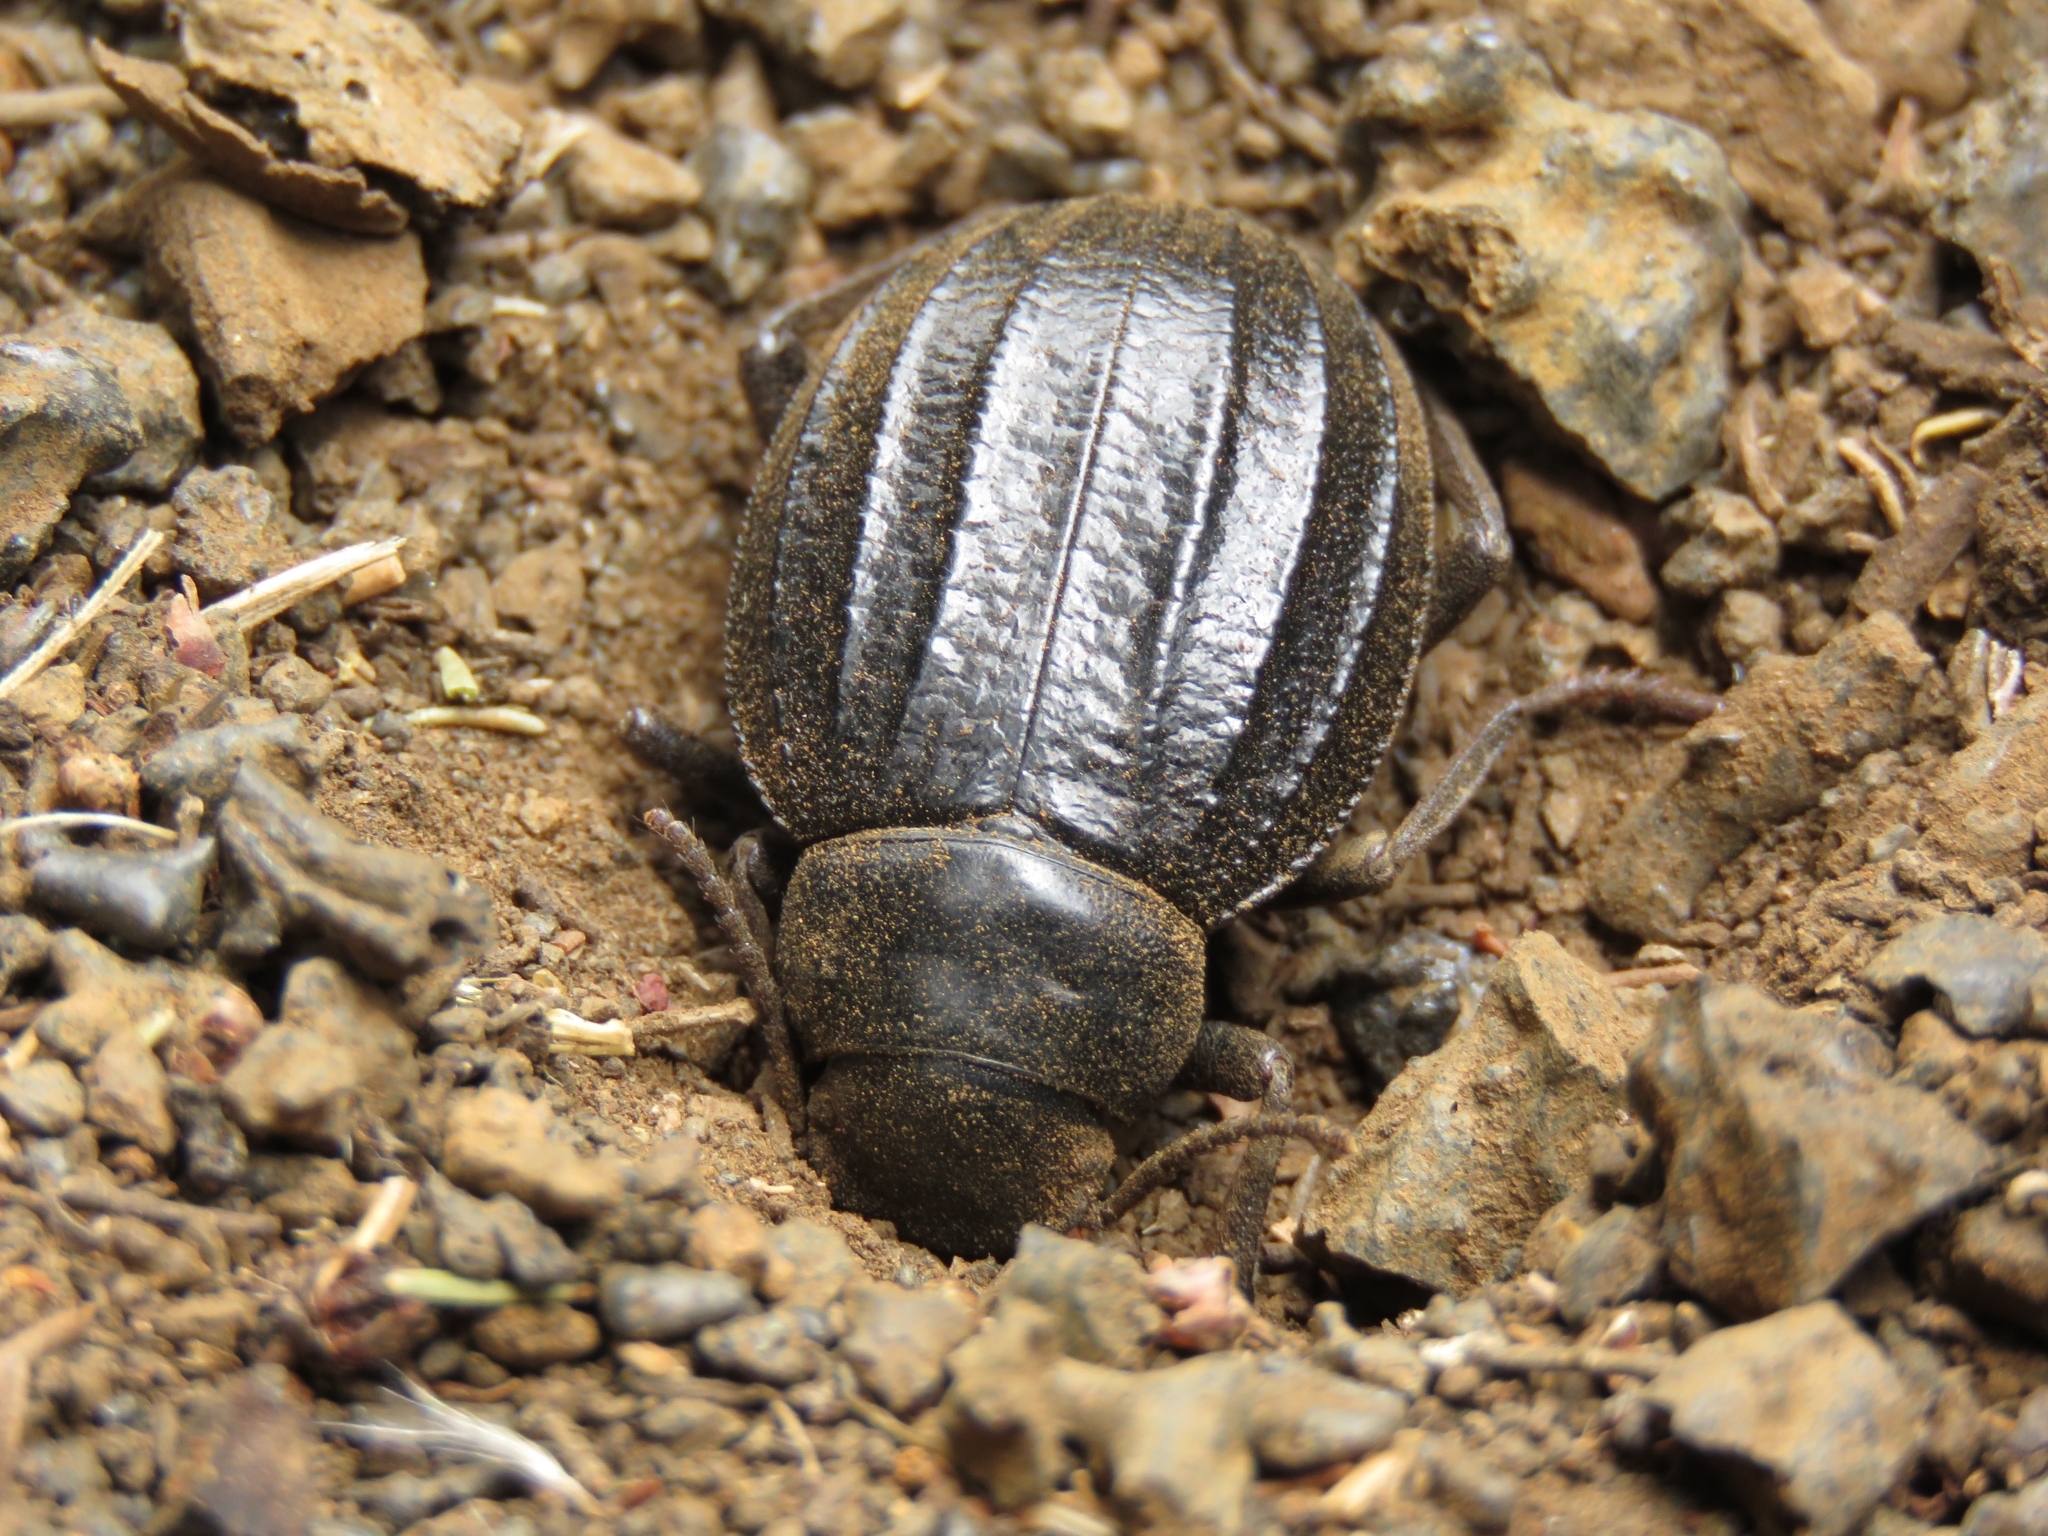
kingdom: Animalia
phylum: Arthropoda
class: Insecta
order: Coleoptera
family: Tenebrionidae
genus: Pimelia
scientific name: Pimelia laevigata
